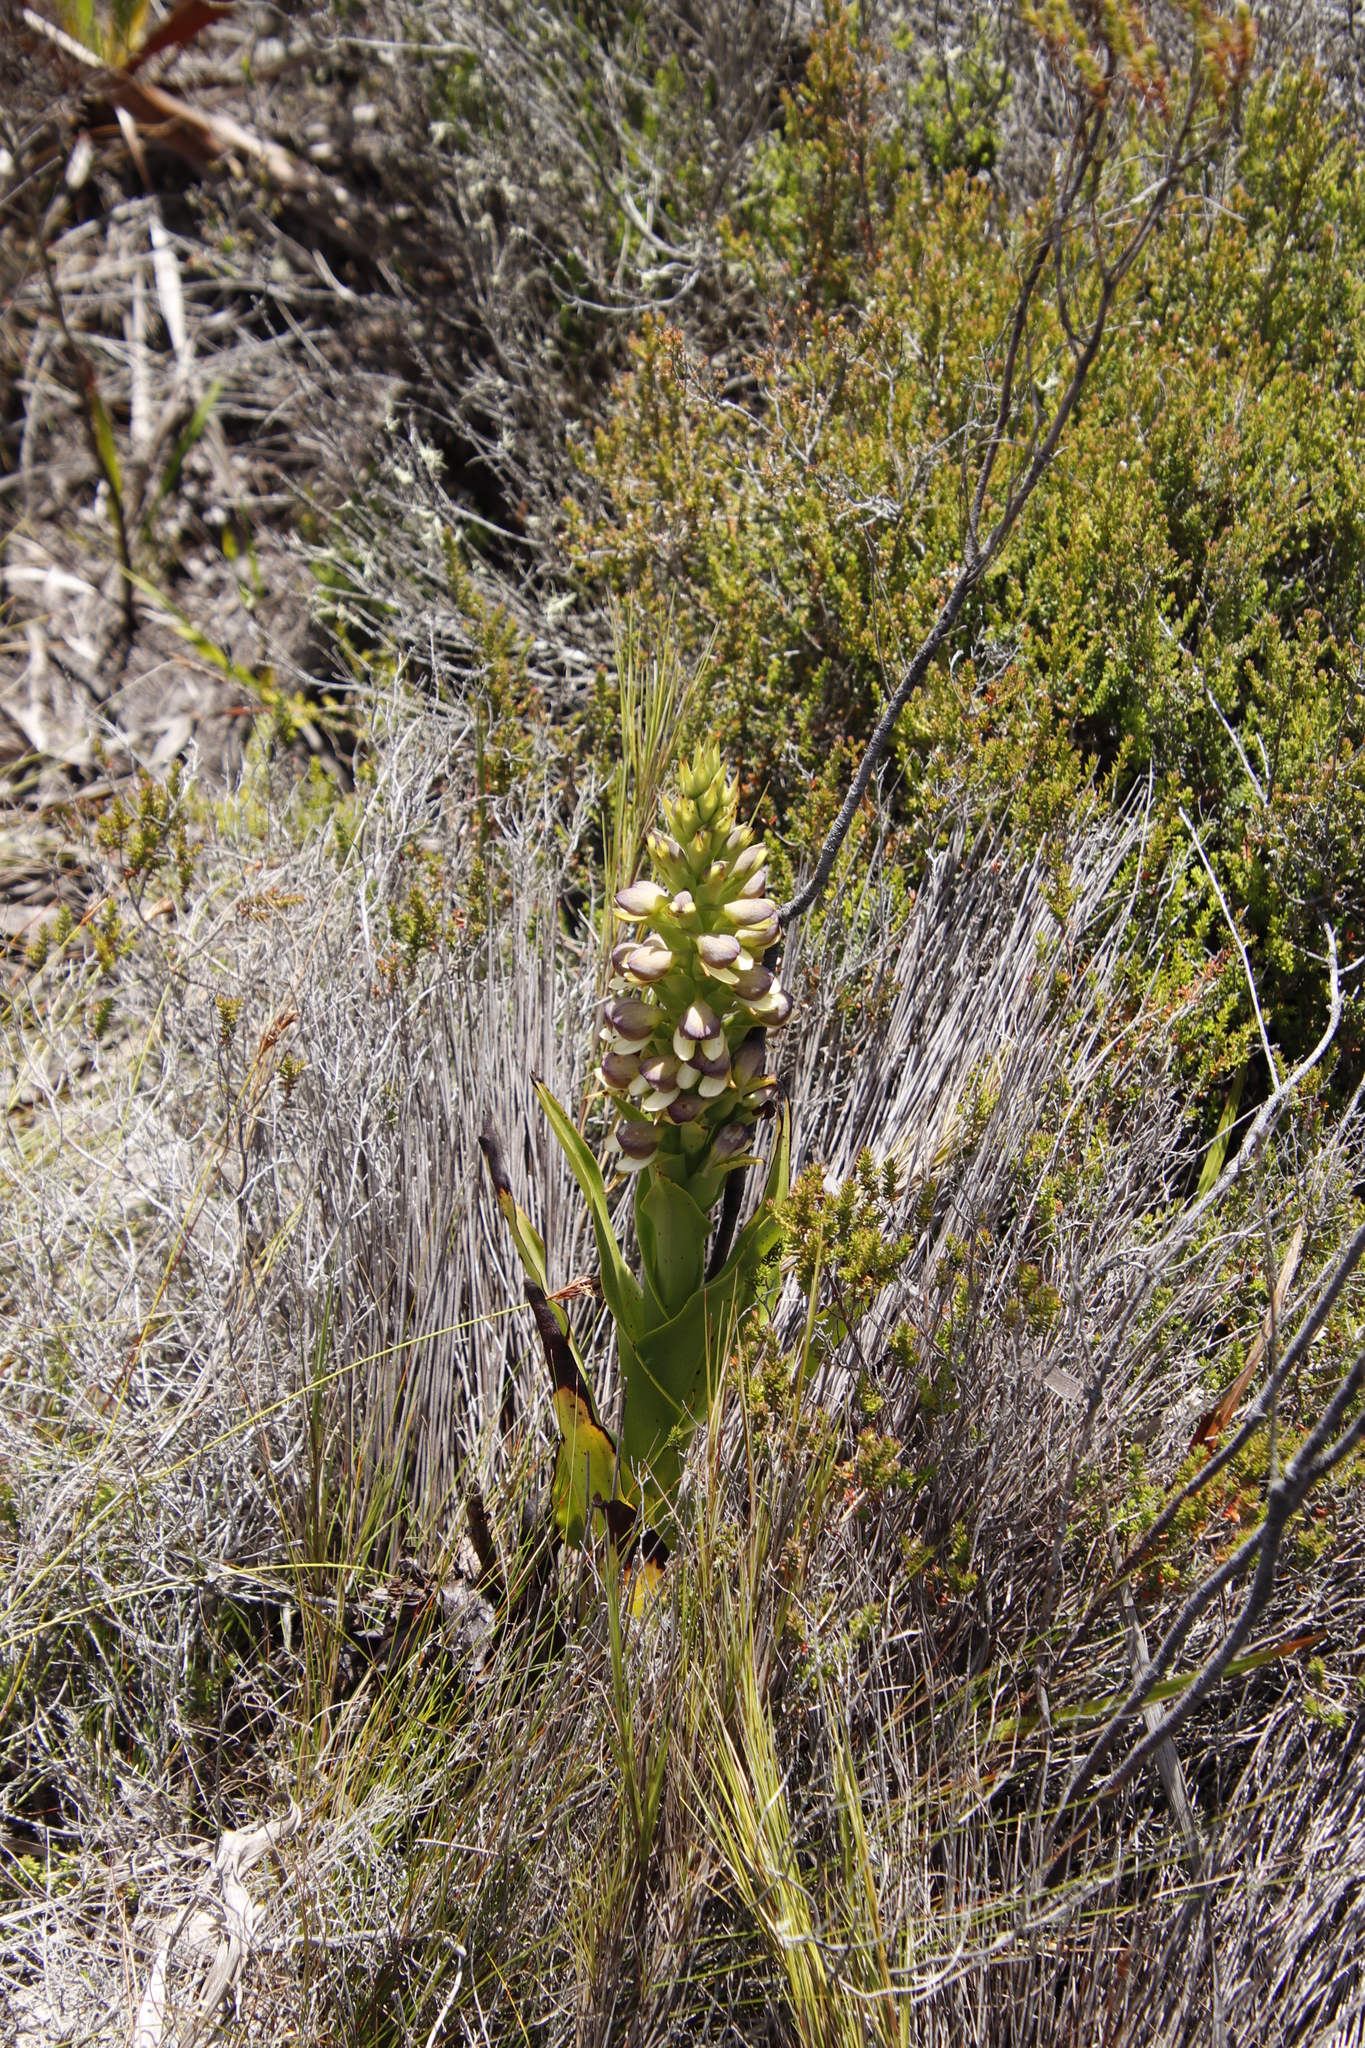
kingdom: Plantae
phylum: Tracheophyta
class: Liliopsida
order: Asparagales
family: Orchidaceae
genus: Disa
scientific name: Disa cornuta
